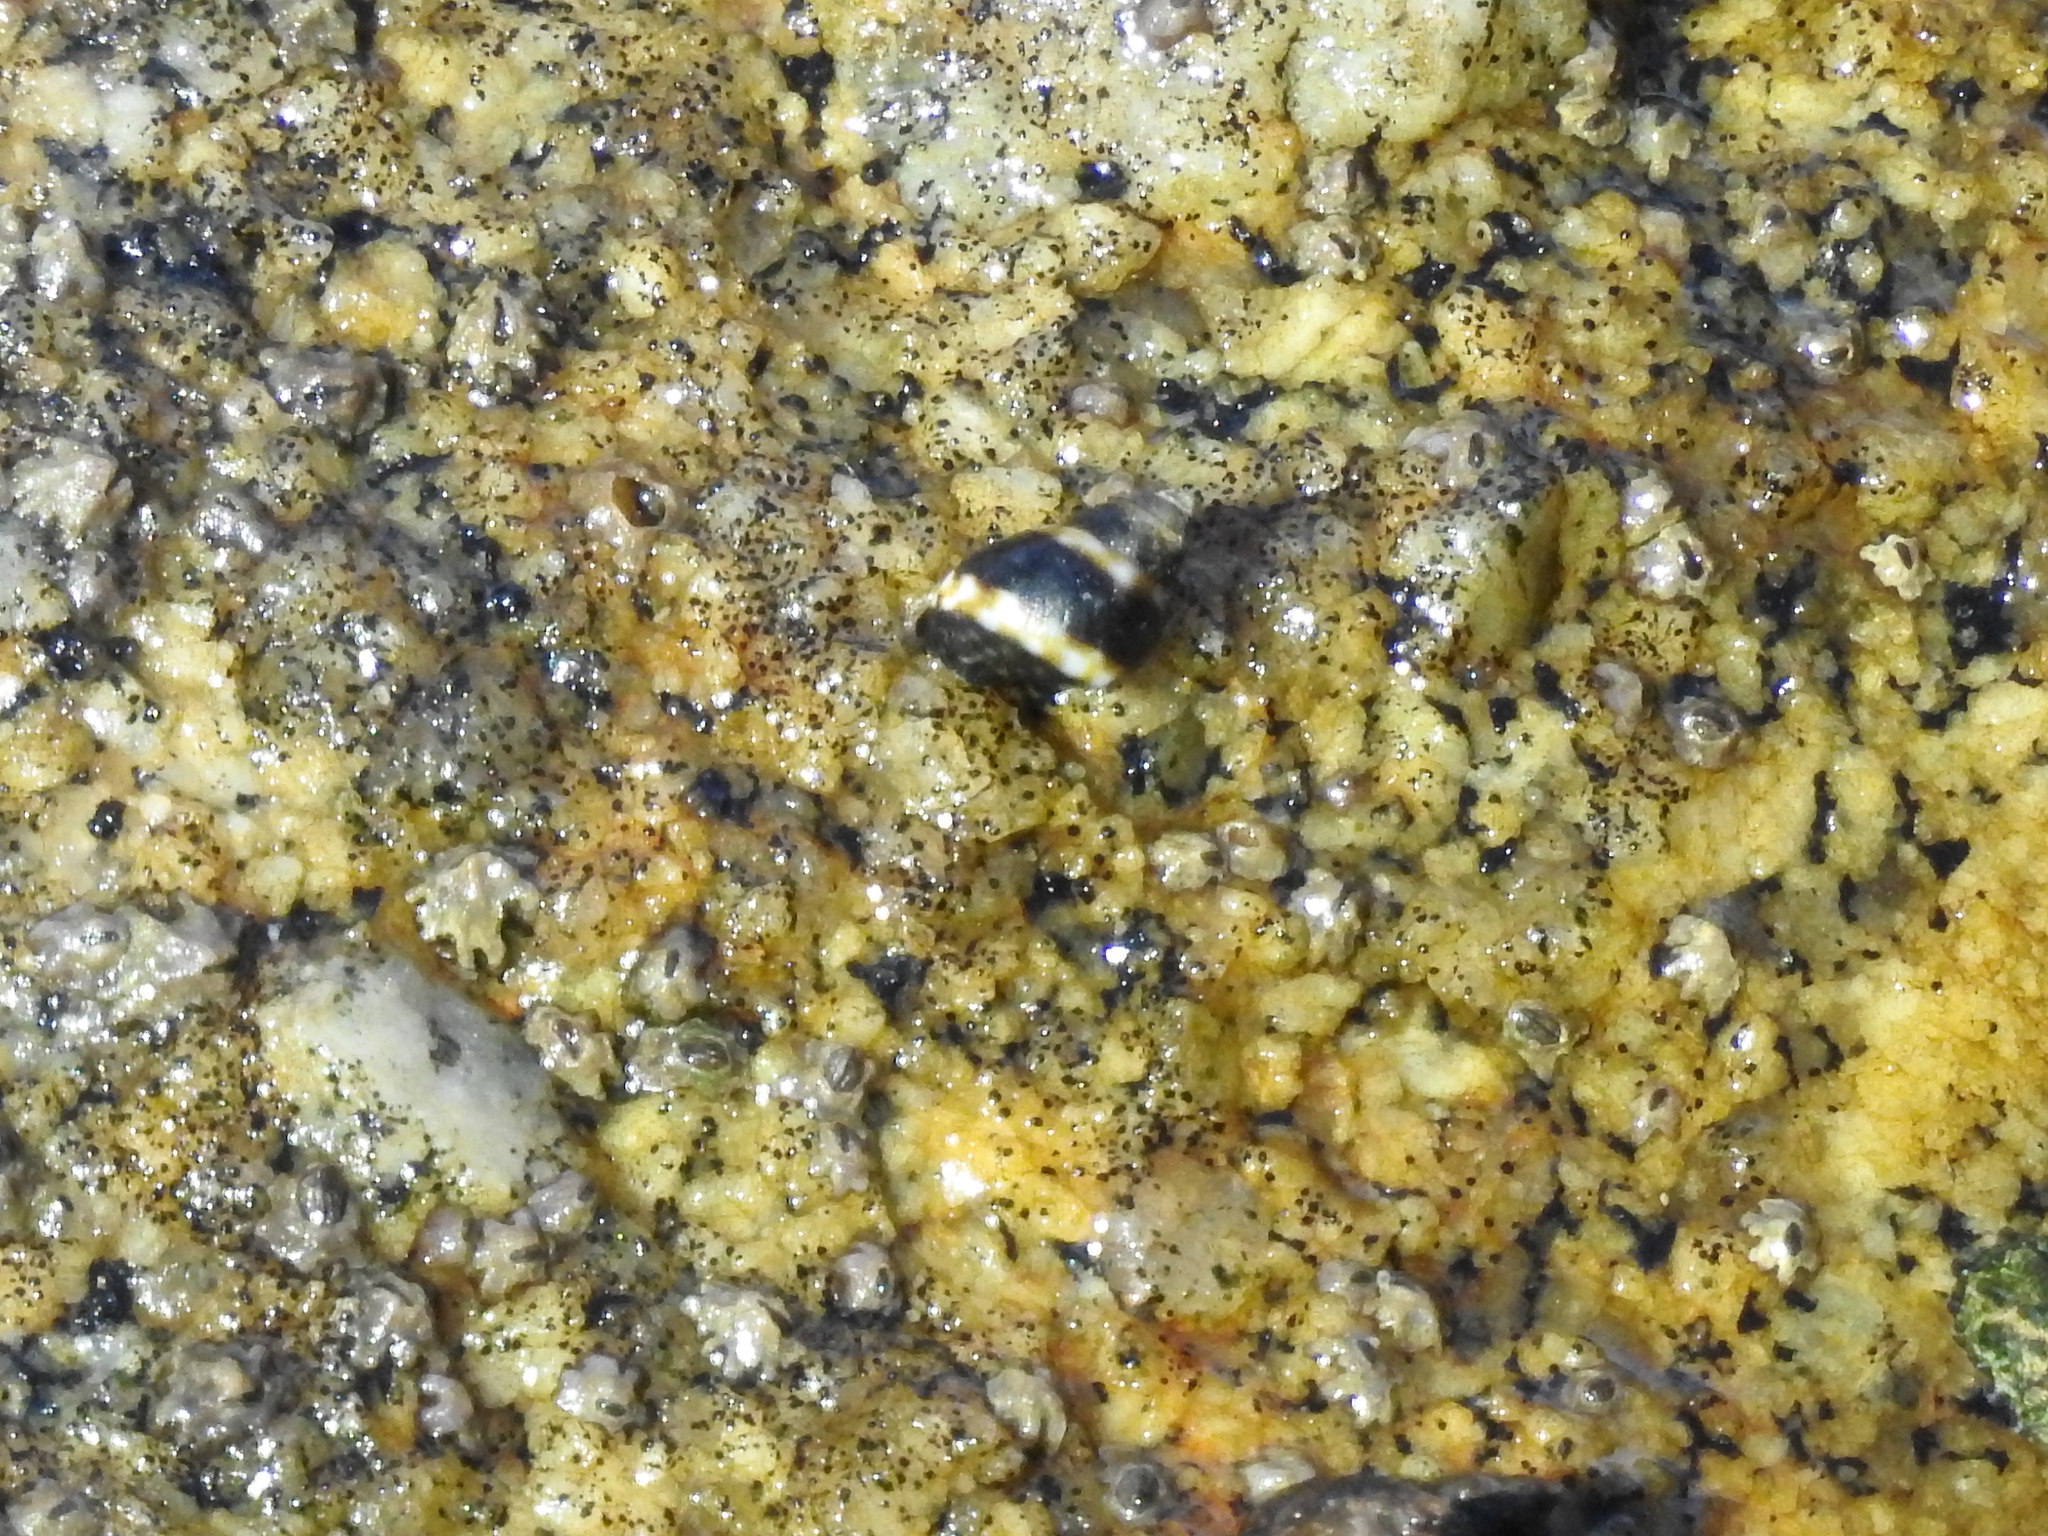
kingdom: Animalia
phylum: Mollusca
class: Gastropoda
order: Littorinimorpha
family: Littorinidae
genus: Littorina
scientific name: Littorina scutulata
